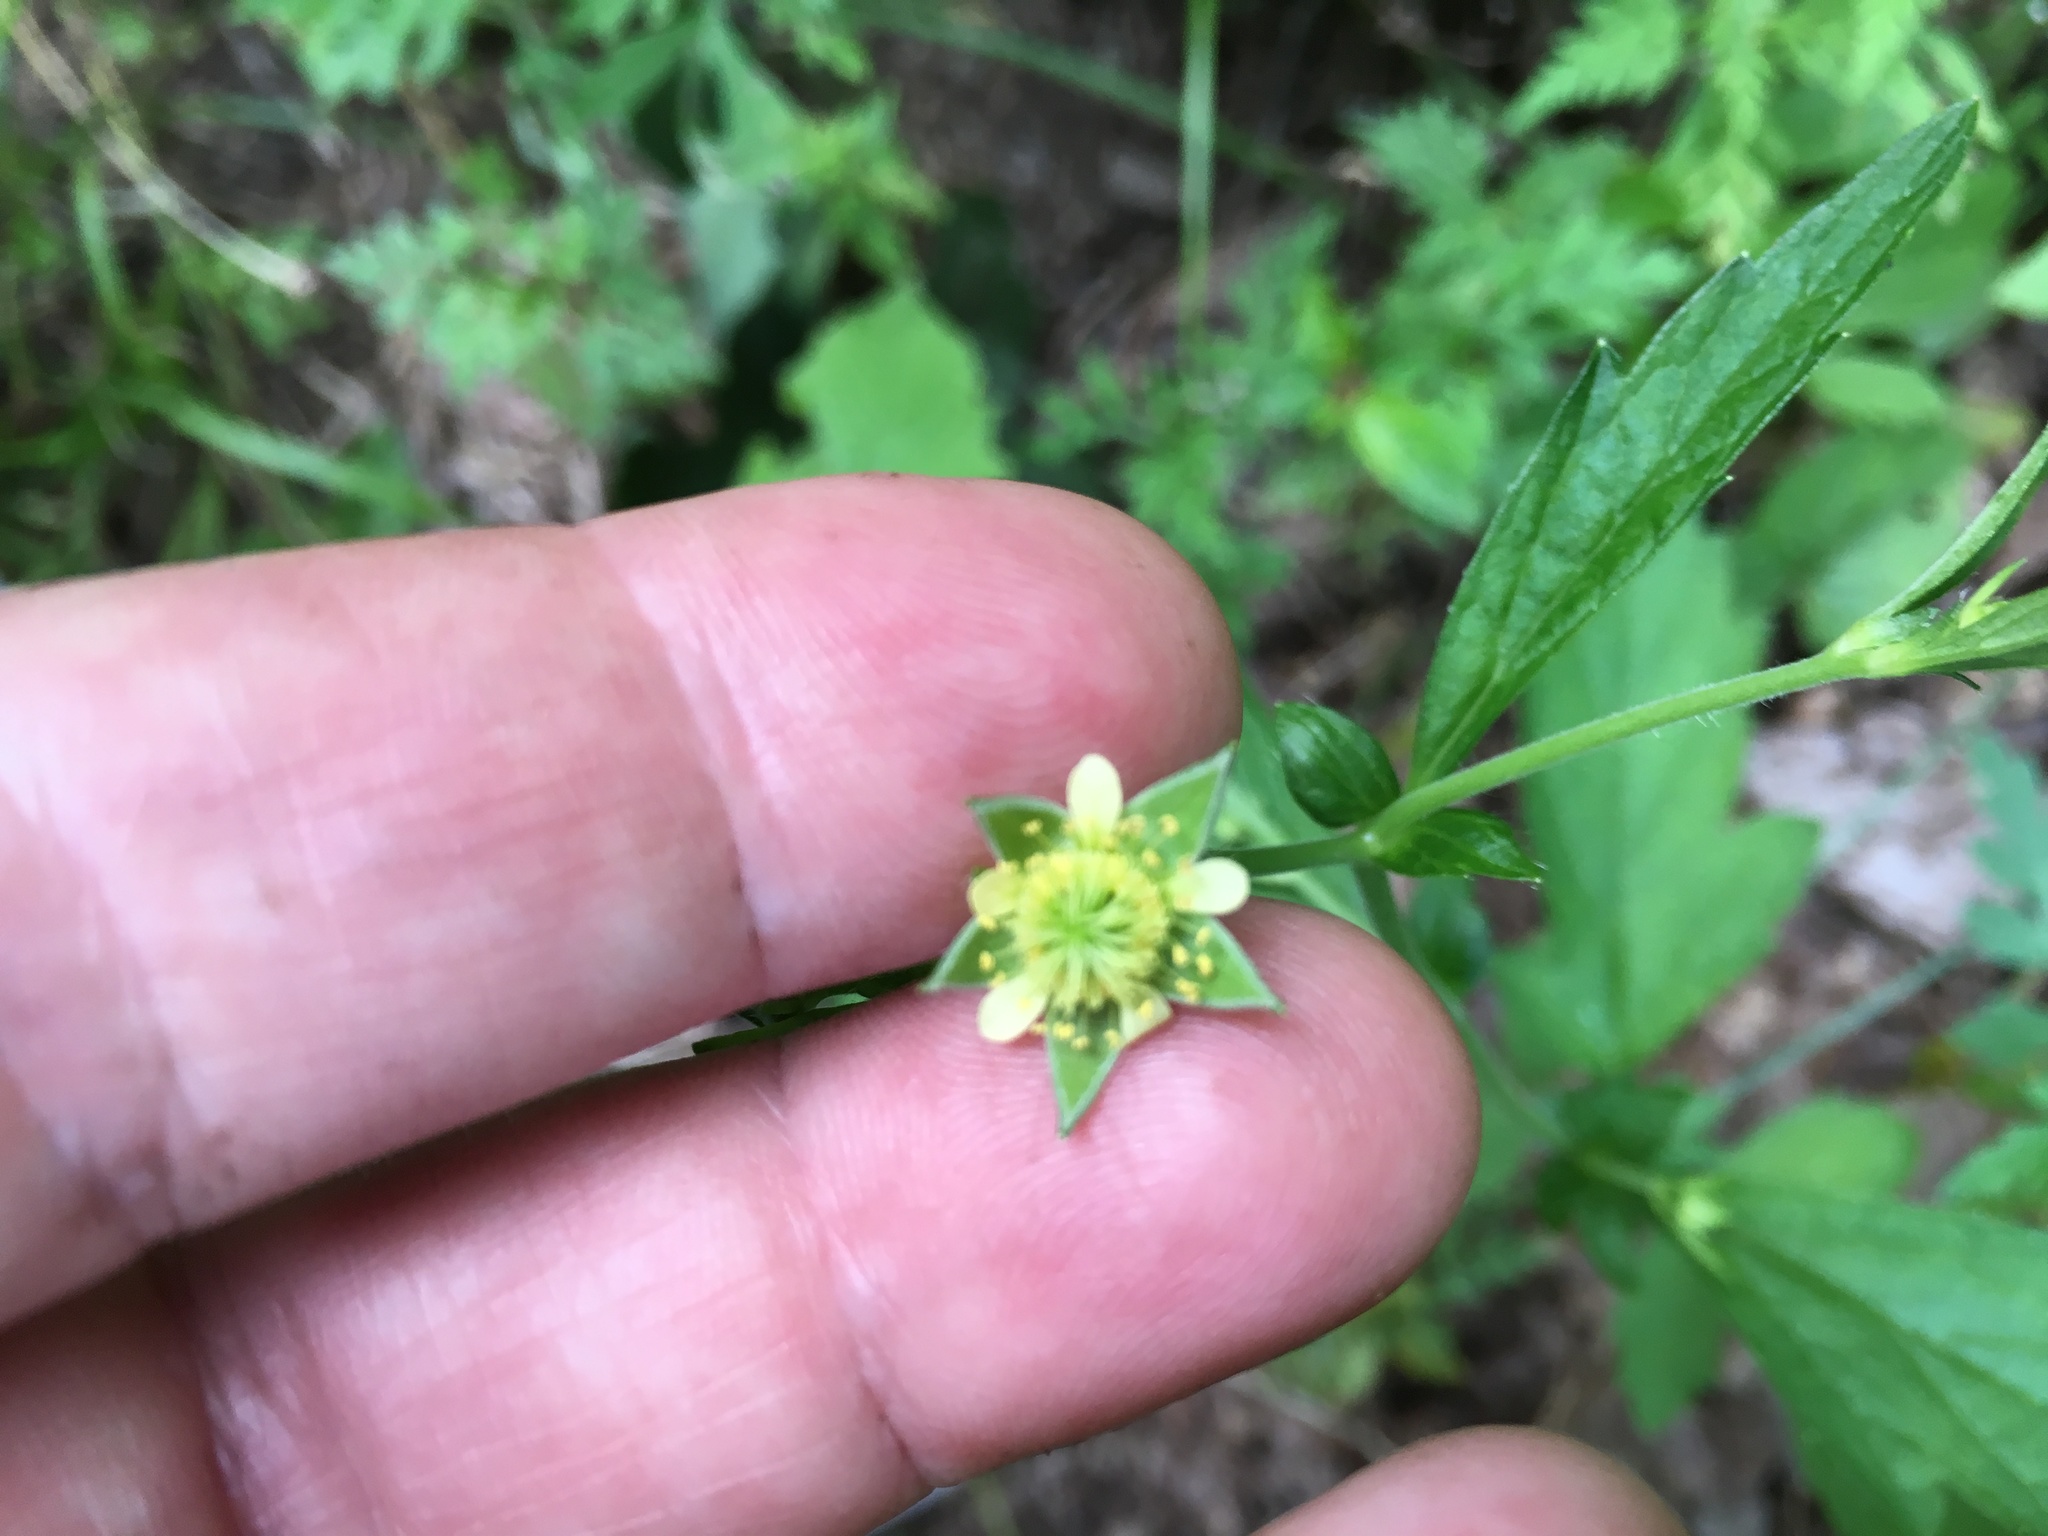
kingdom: Plantae
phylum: Tracheophyta
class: Magnoliopsida
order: Rosales
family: Rosaceae
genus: Geum
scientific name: Geum virginianum
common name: Cream avens
